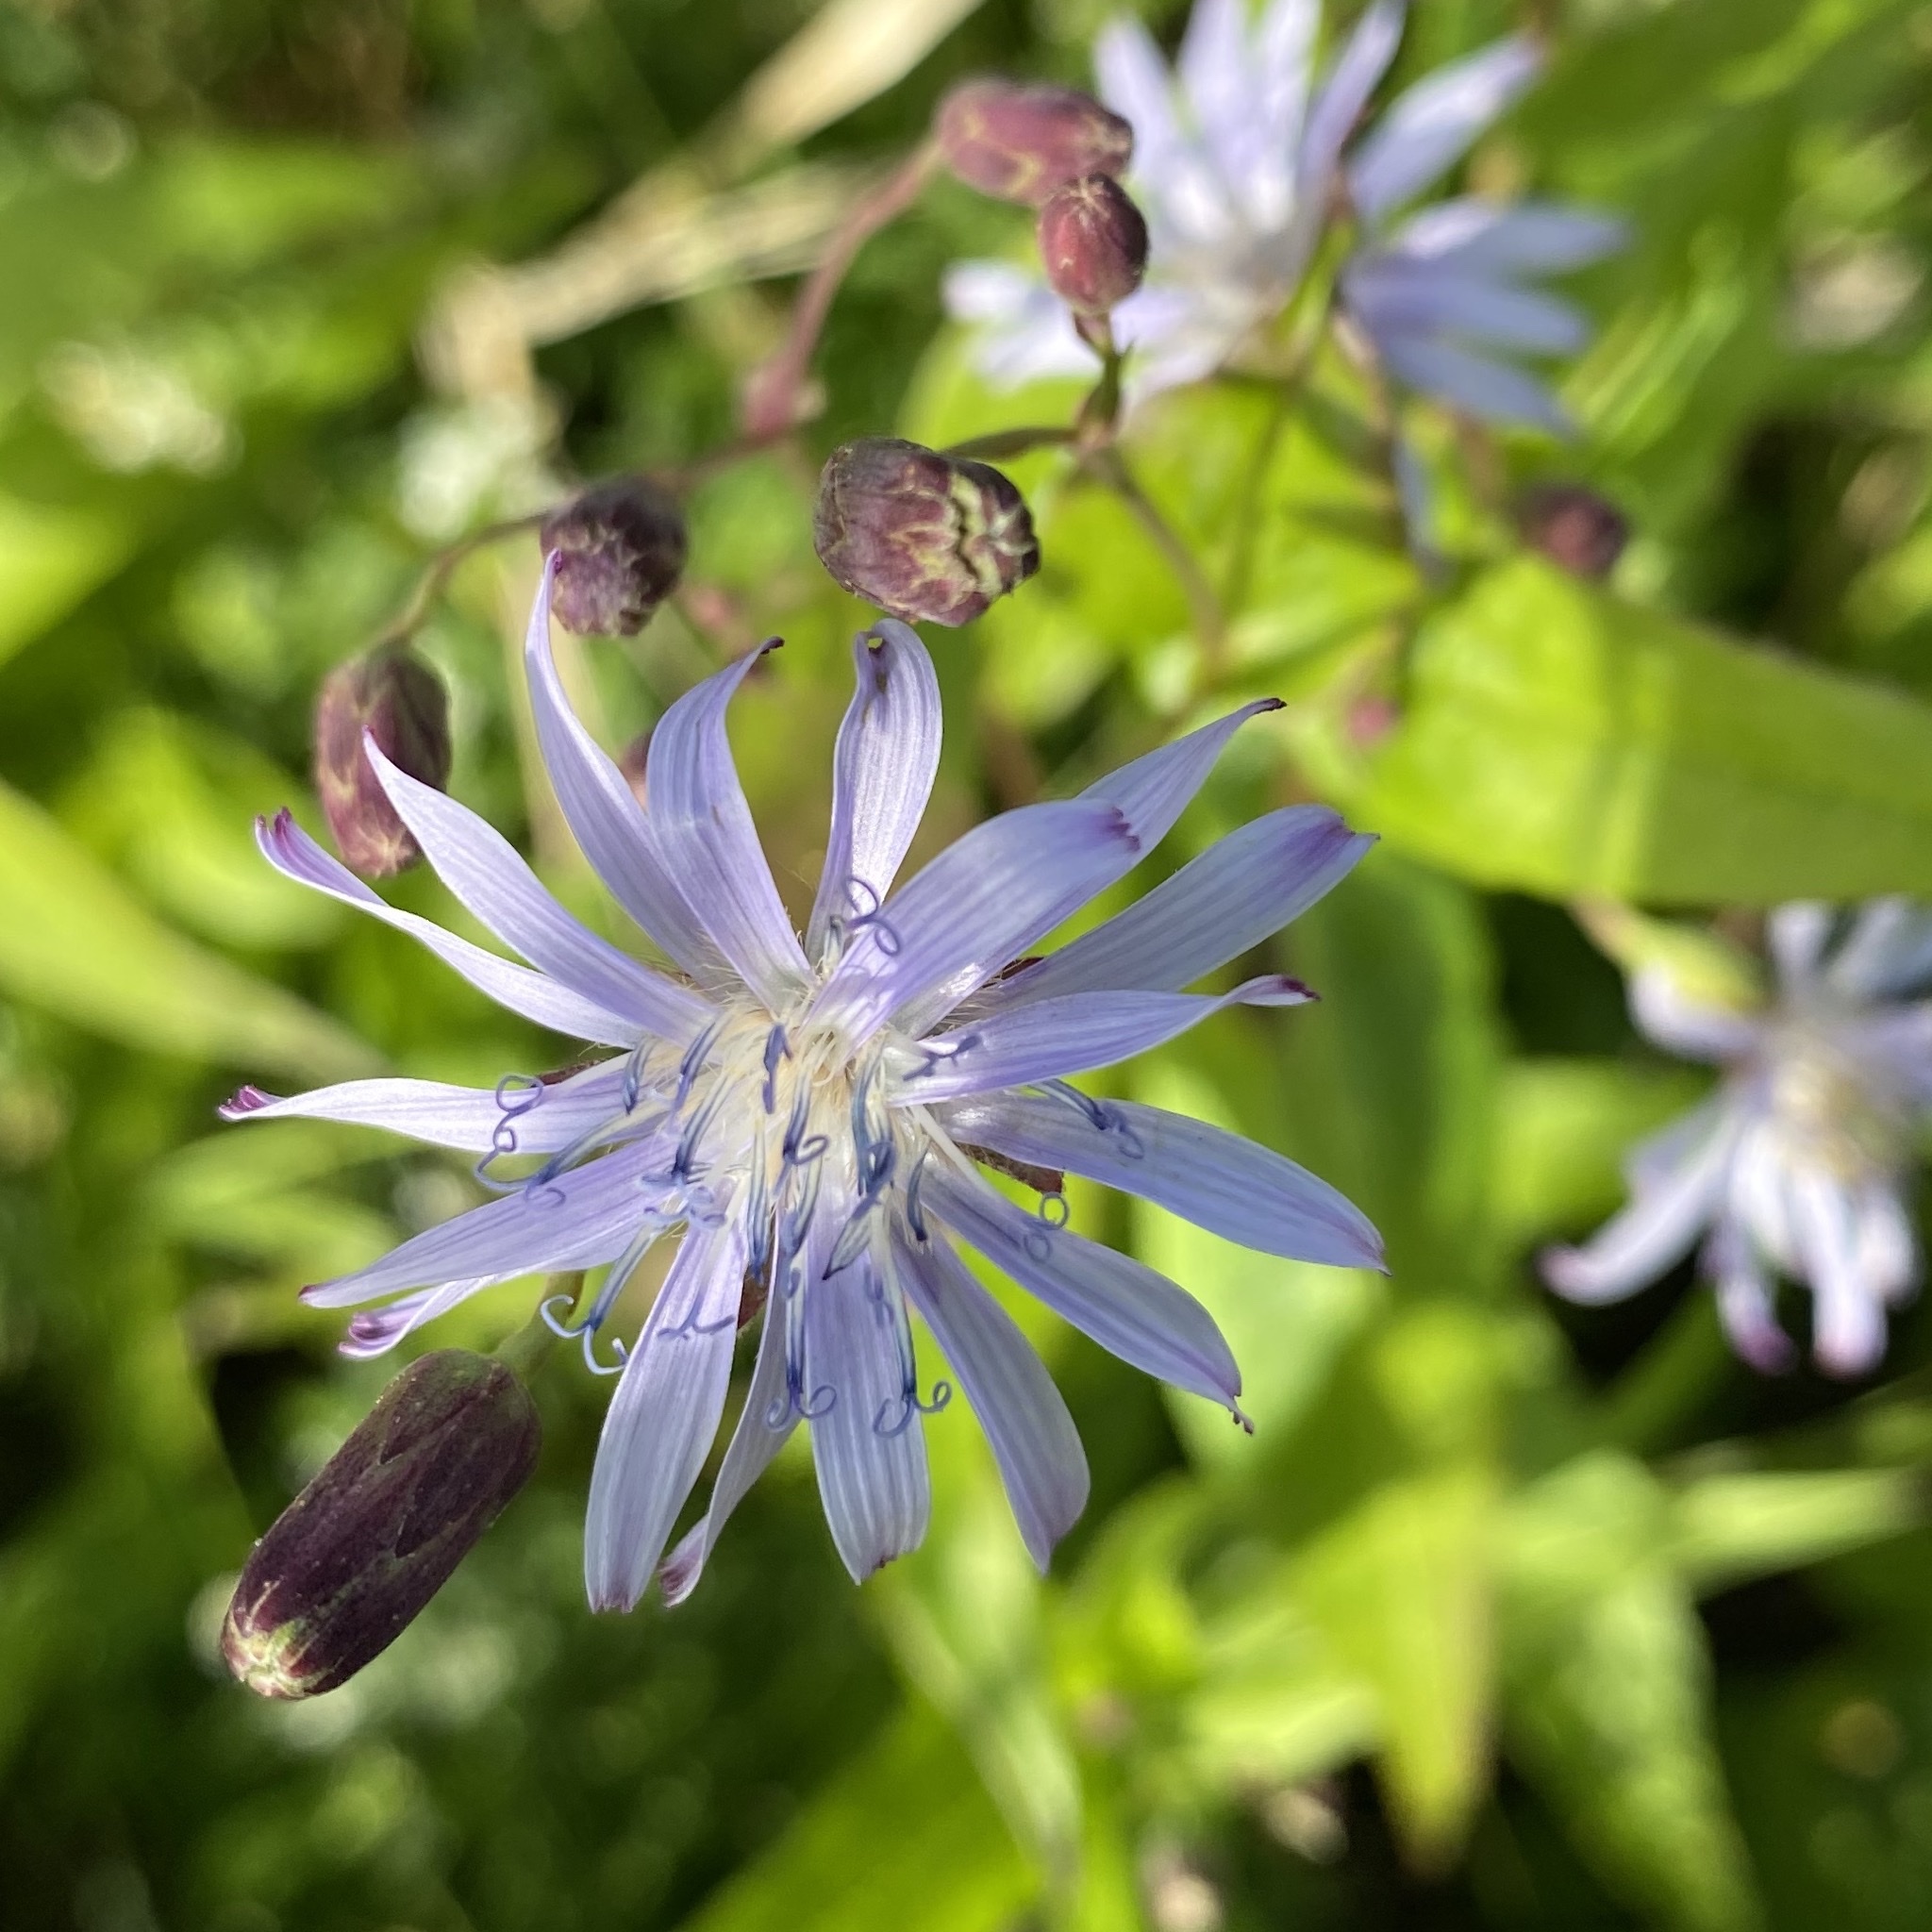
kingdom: Plantae
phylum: Tracheophyta
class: Magnoliopsida
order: Asterales
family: Asteraceae
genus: Lactuca
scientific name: Lactuca sibirica
